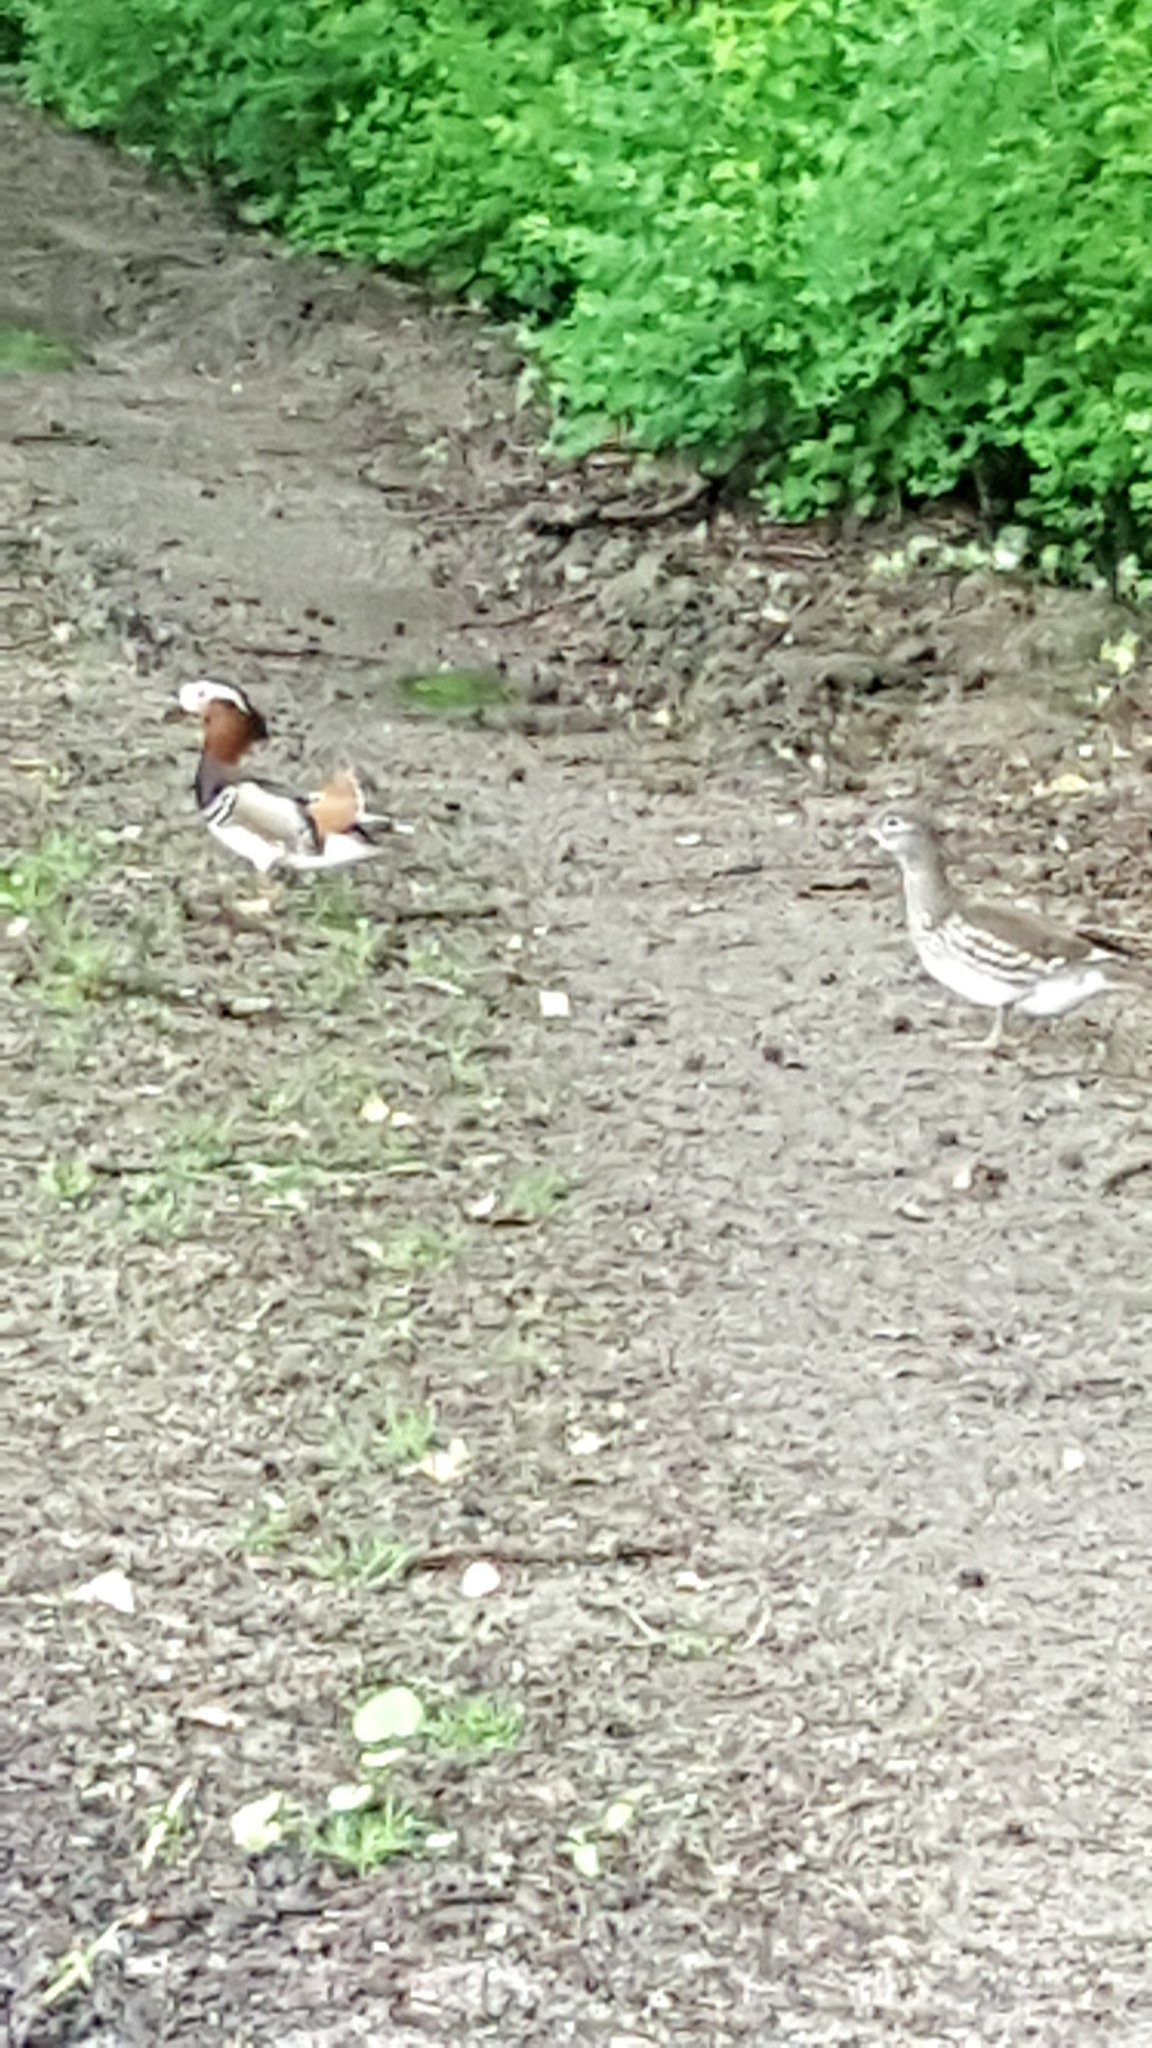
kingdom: Animalia
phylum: Chordata
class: Aves
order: Anseriformes
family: Anatidae
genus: Aix
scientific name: Aix galericulata
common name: Mandarin duck
